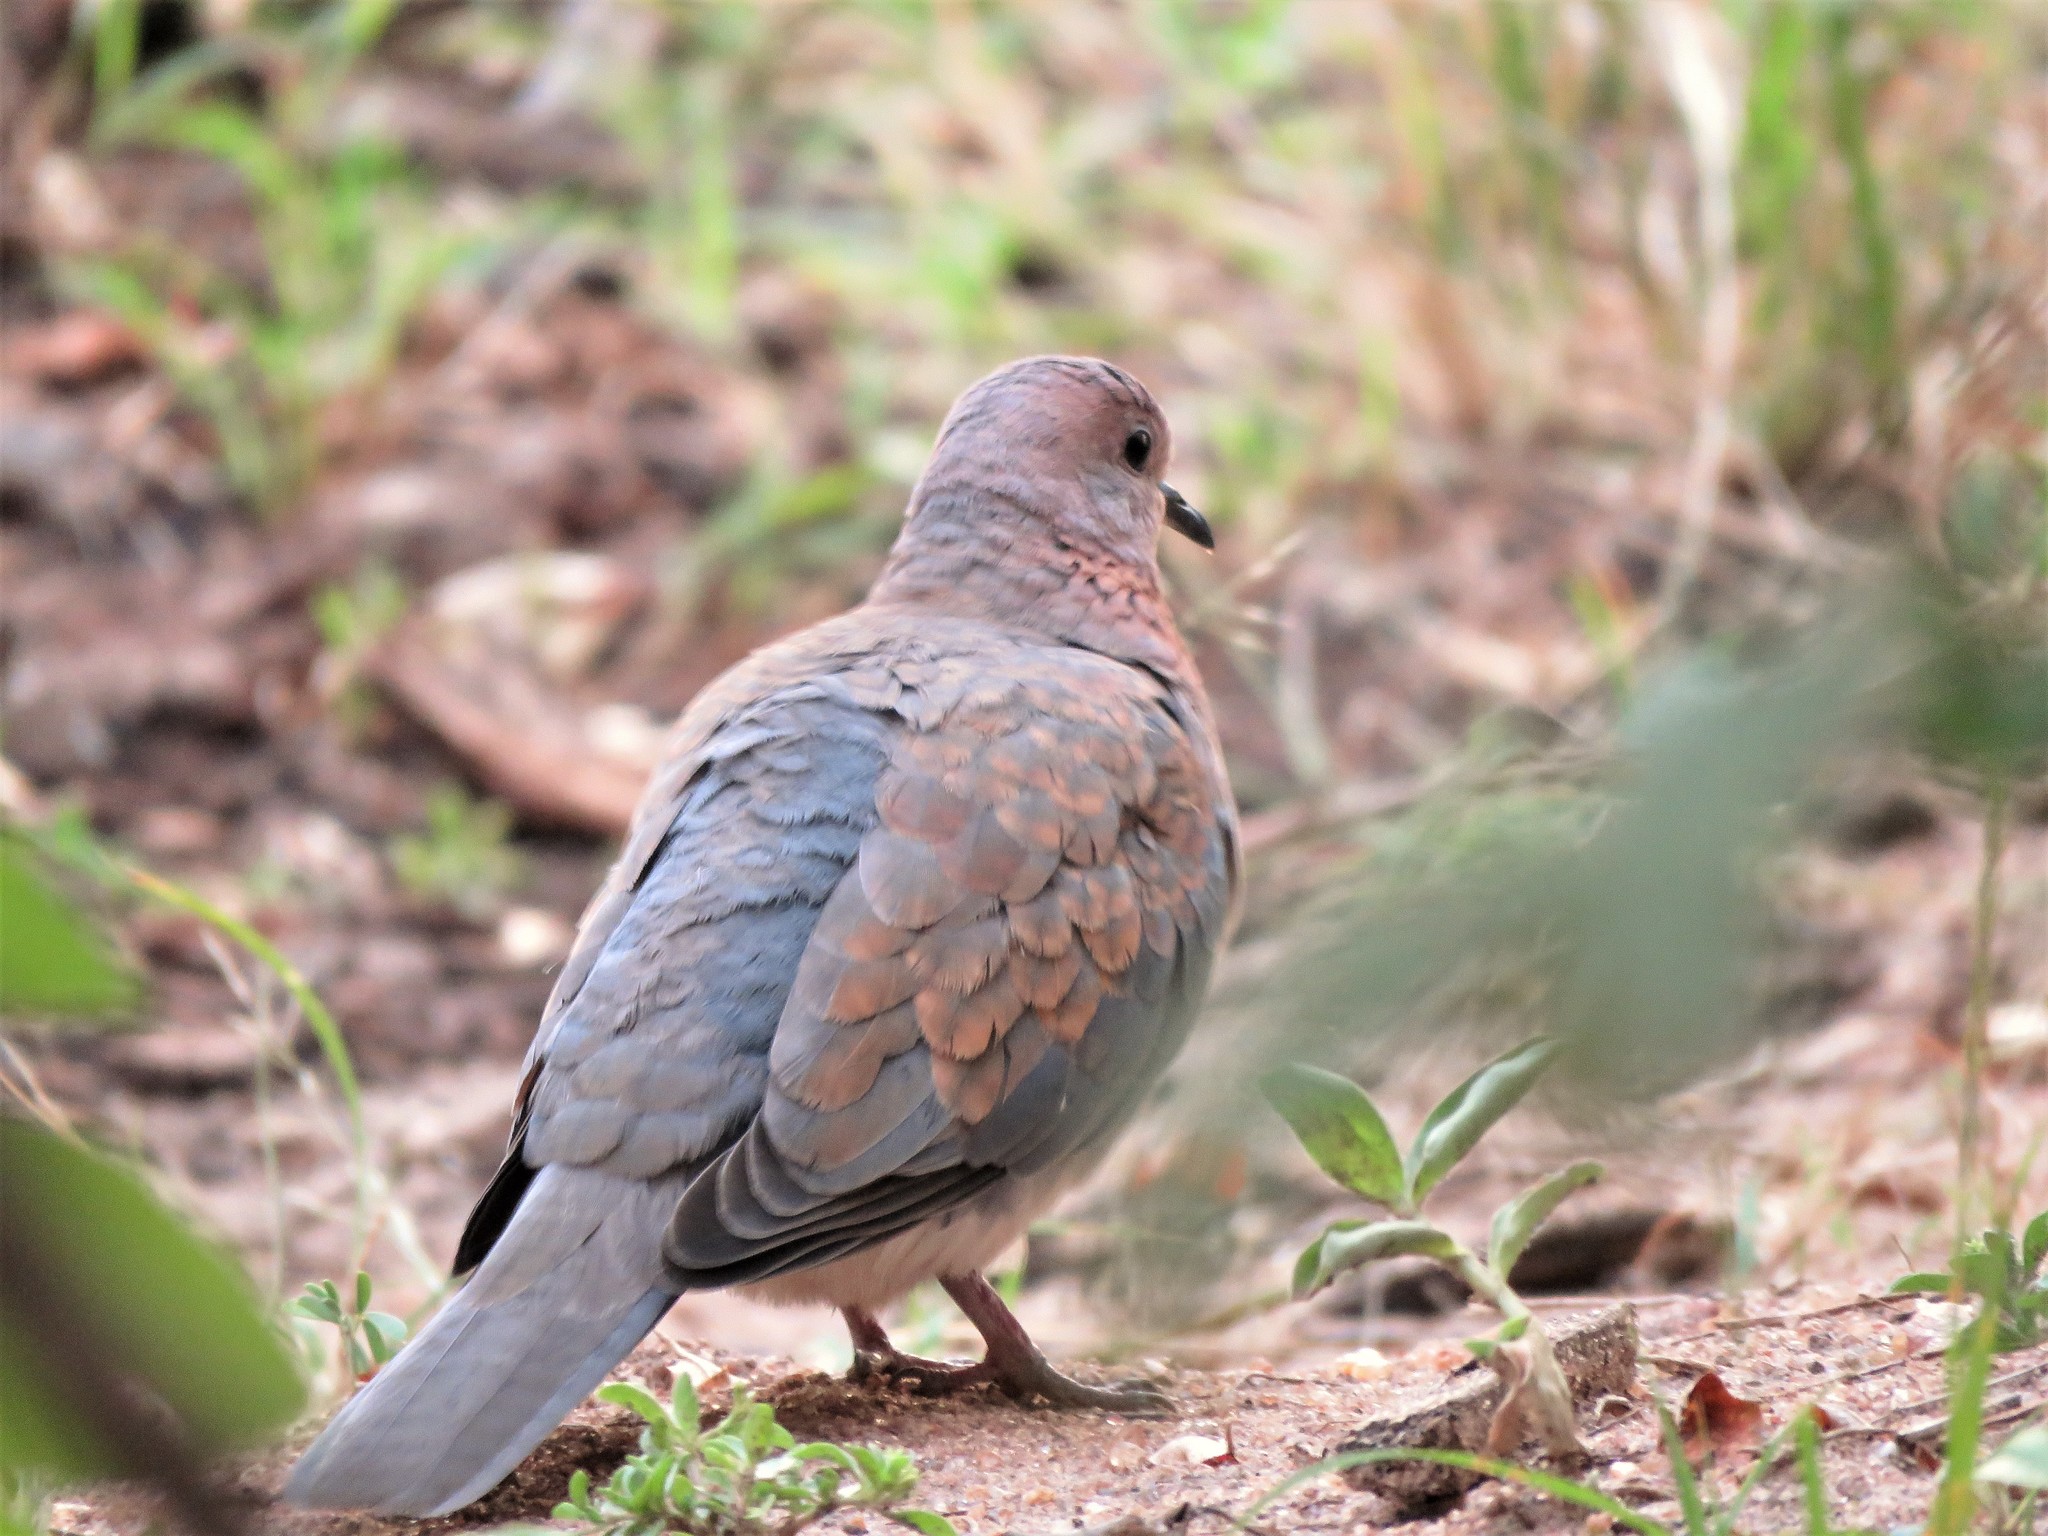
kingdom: Animalia
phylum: Chordata
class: Aves
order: Columbiformes
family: Columbidae
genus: Spilopelia
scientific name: Spilopelia senegalensis
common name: Laughing dove
